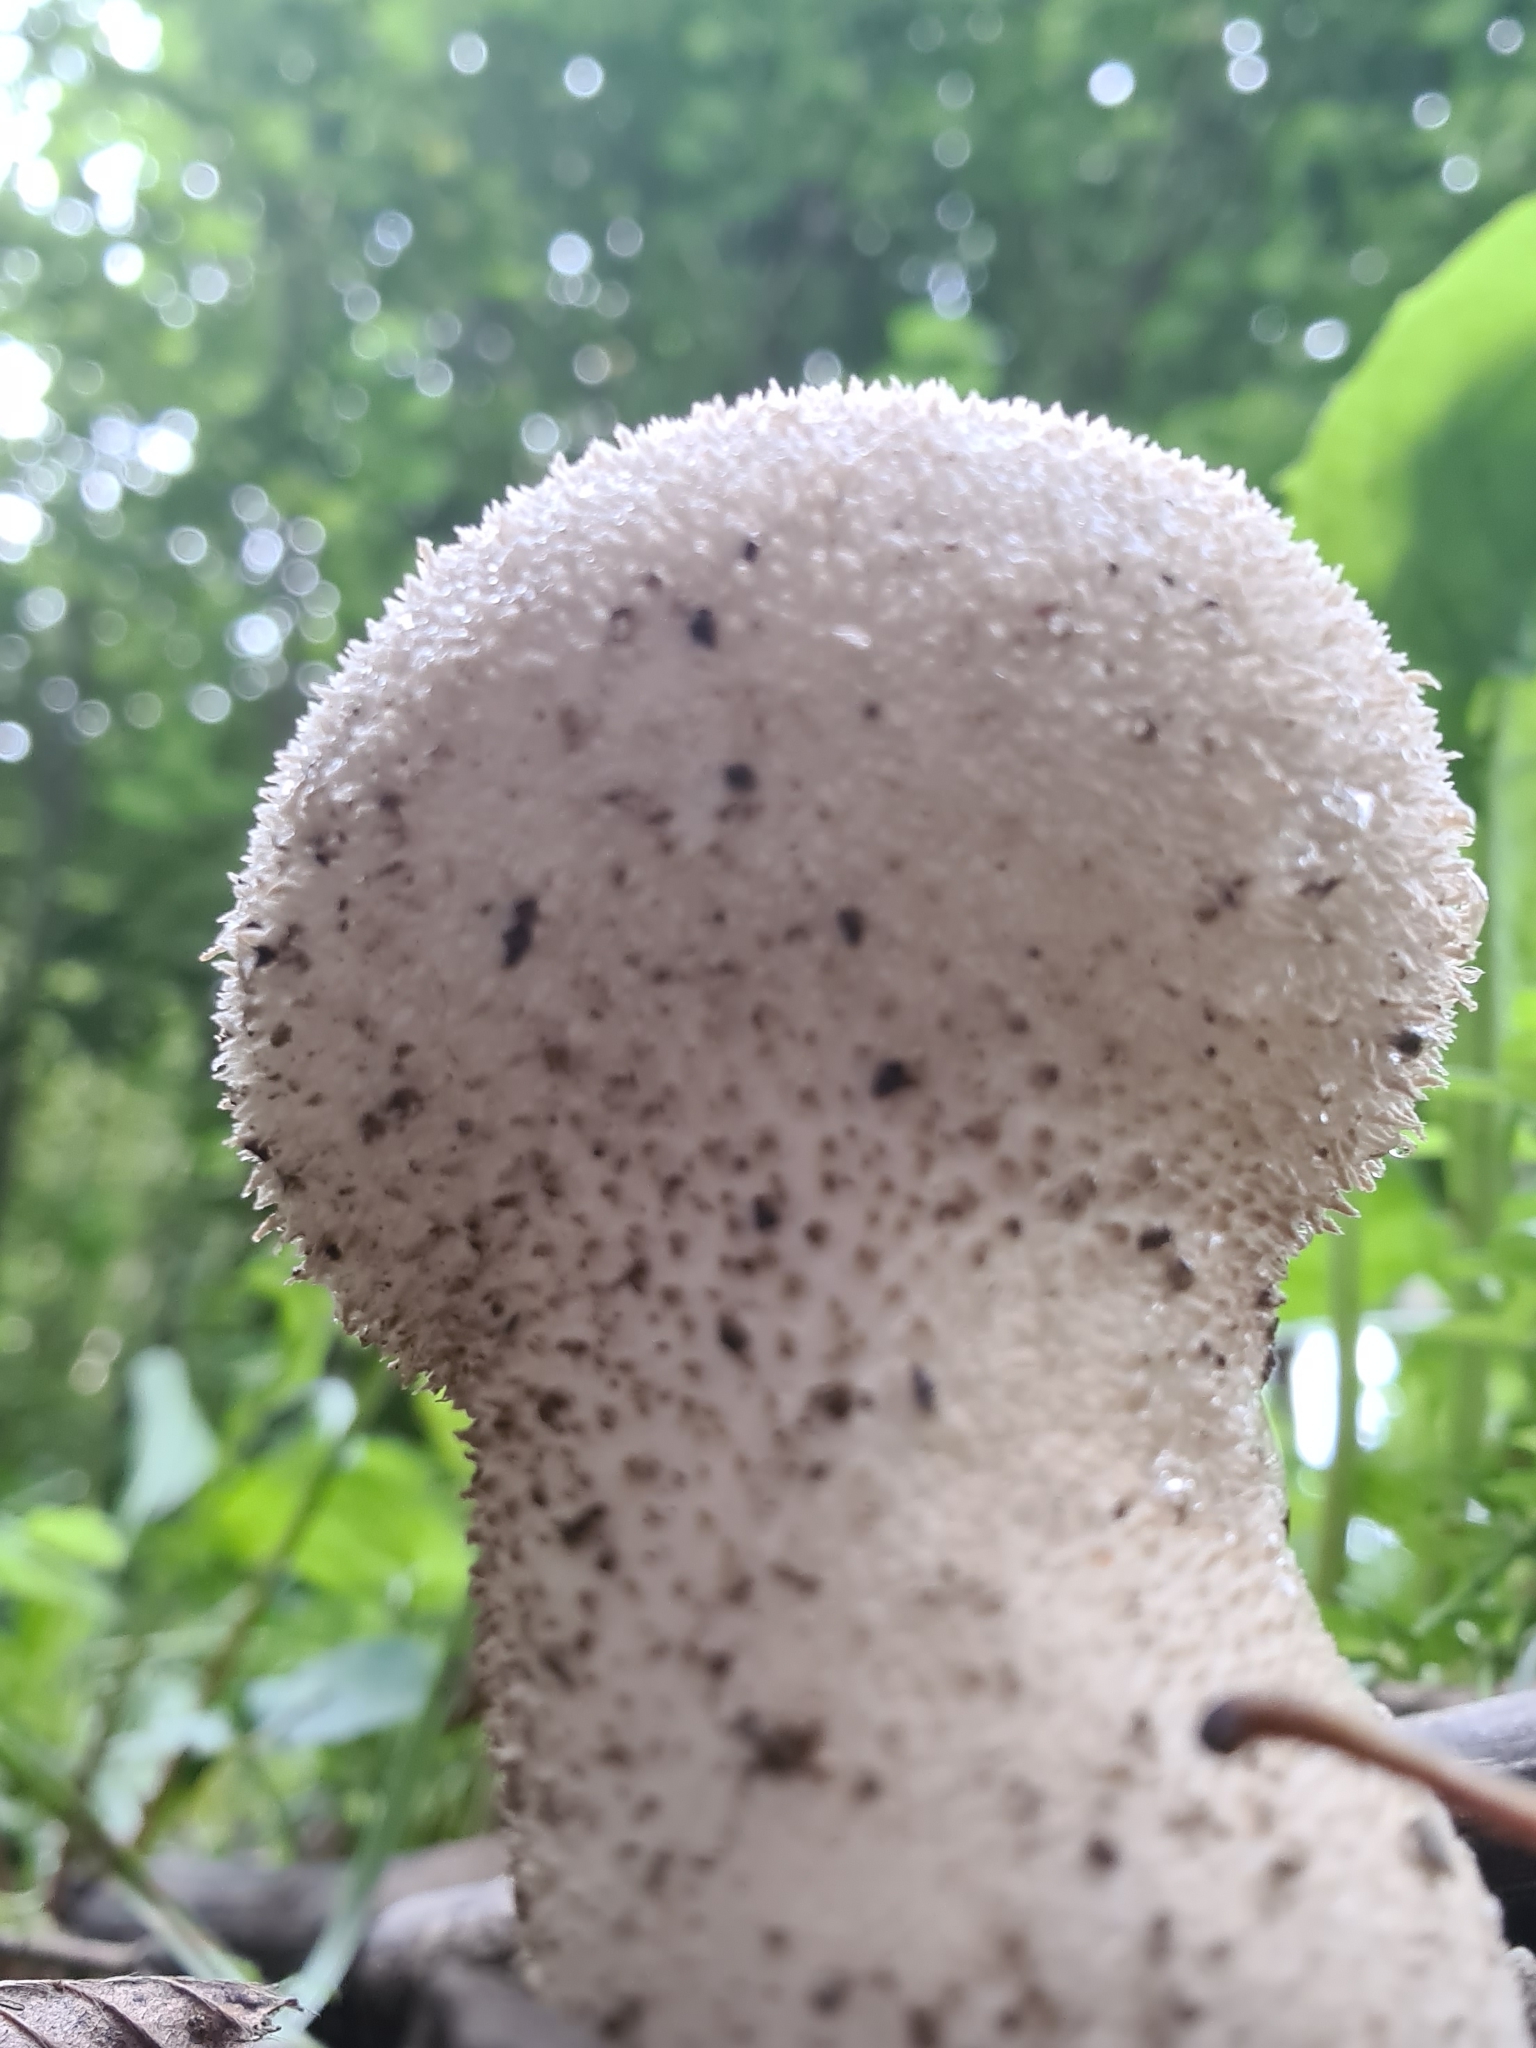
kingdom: Fungi
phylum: Basidiomycota
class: Agaricomycetes
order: Agaricales
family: Lycoperdaceae
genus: Lycoperdon
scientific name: Lycoperdon perlatum
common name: Common puffball
